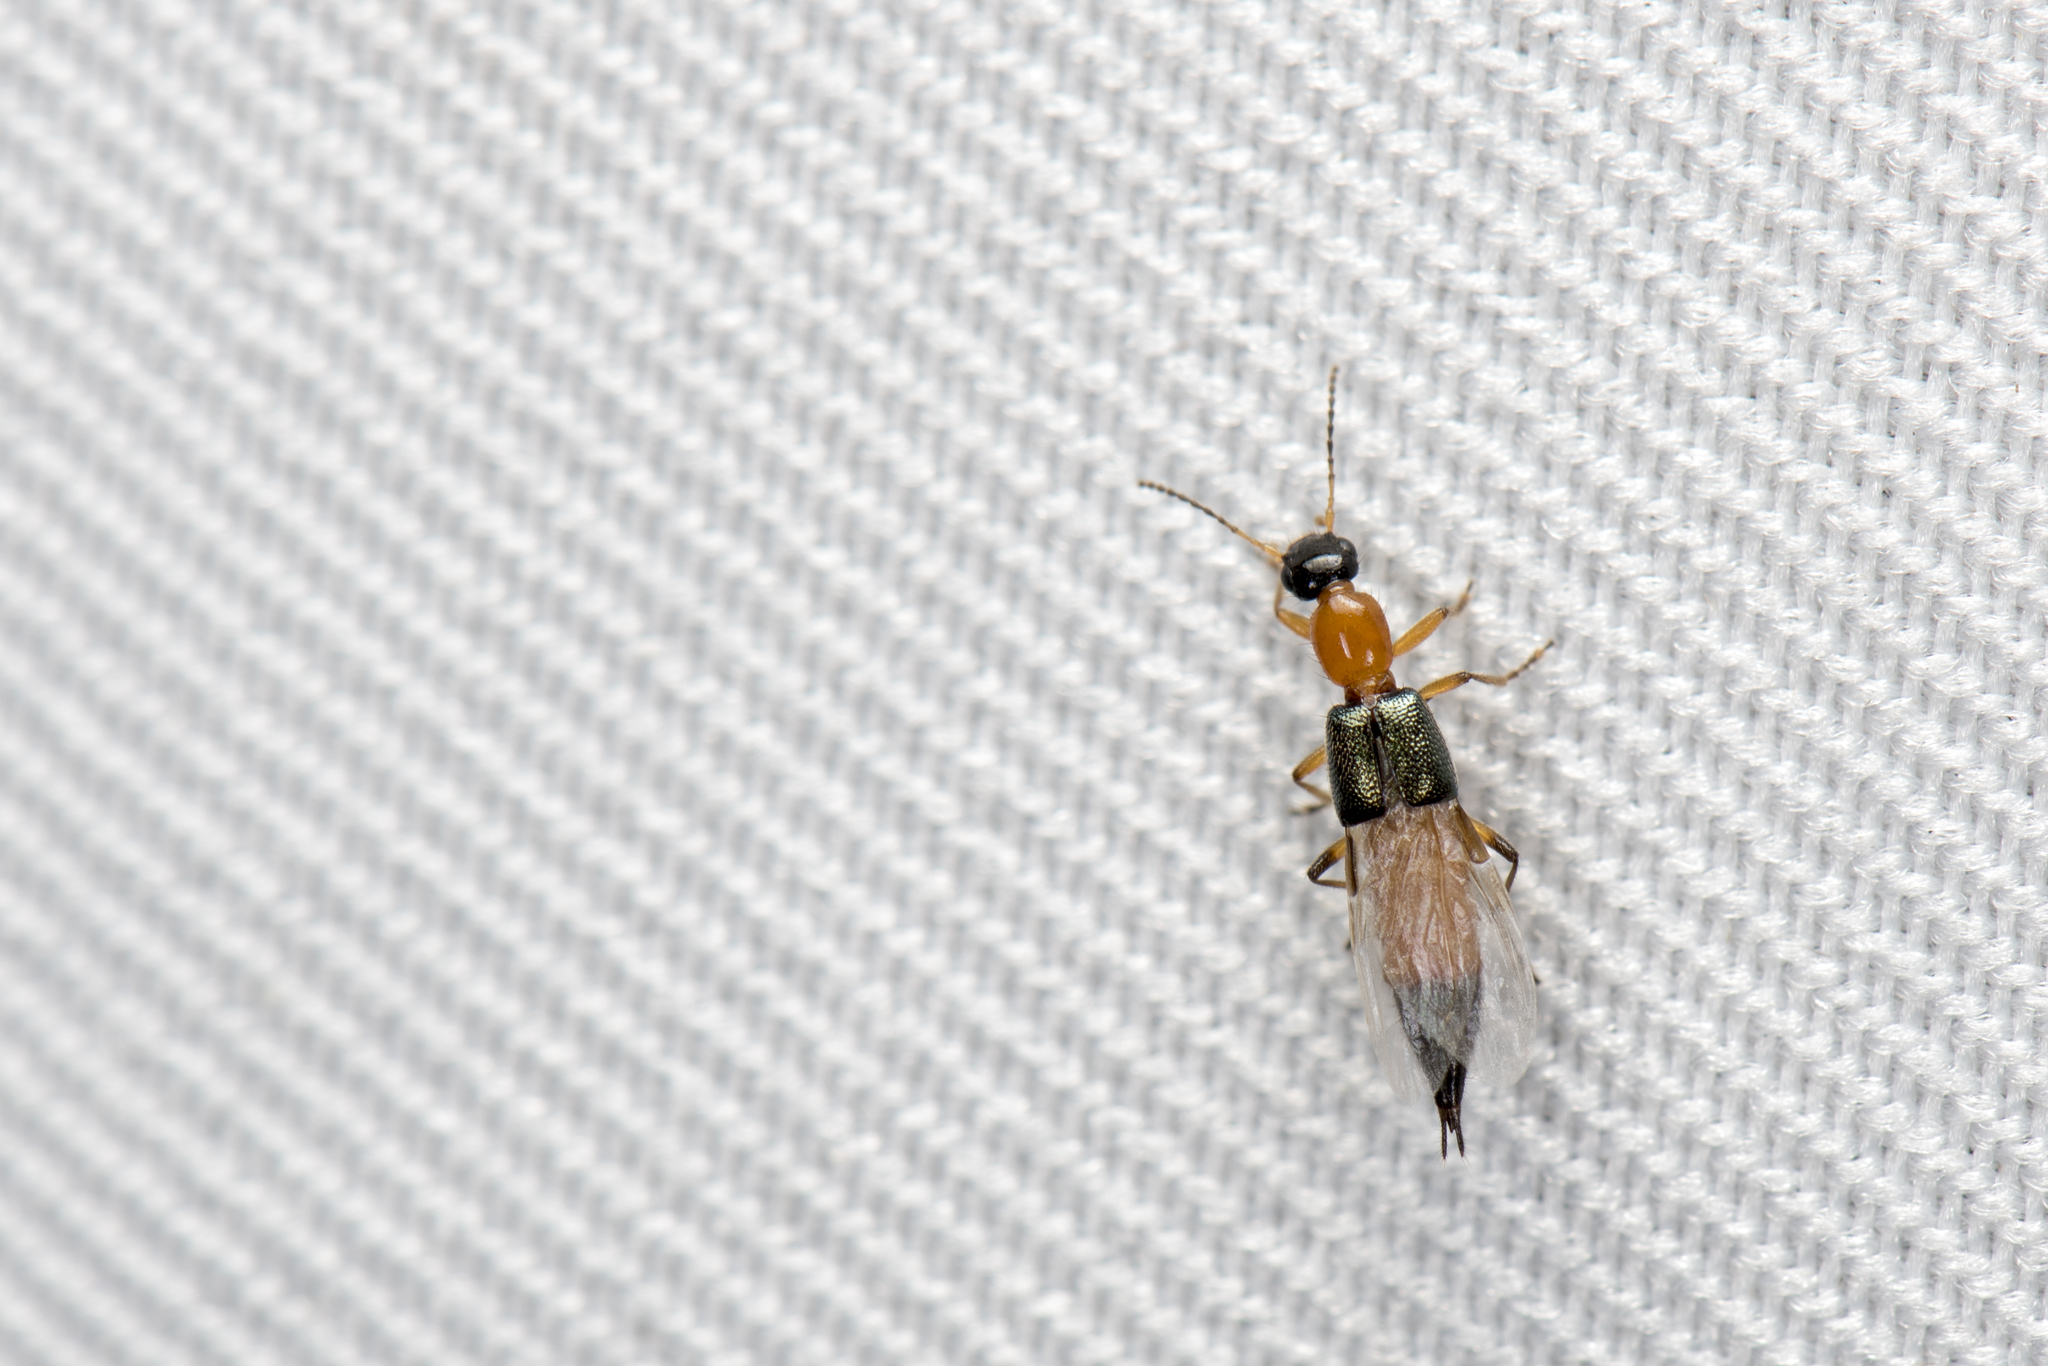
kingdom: Animalia
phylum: Arthropoda
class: Insecta
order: Coleoptera
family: Staphylinidae
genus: Paederus
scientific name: Paederus fuscipes
